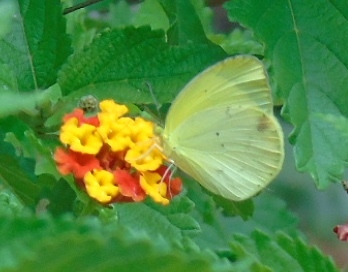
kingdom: Animalia
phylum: Arthropoda
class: Insecta
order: Lepidoptera
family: Pieridae
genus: Pyrisitia
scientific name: Pyrisitia lisa
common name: Little yellow
